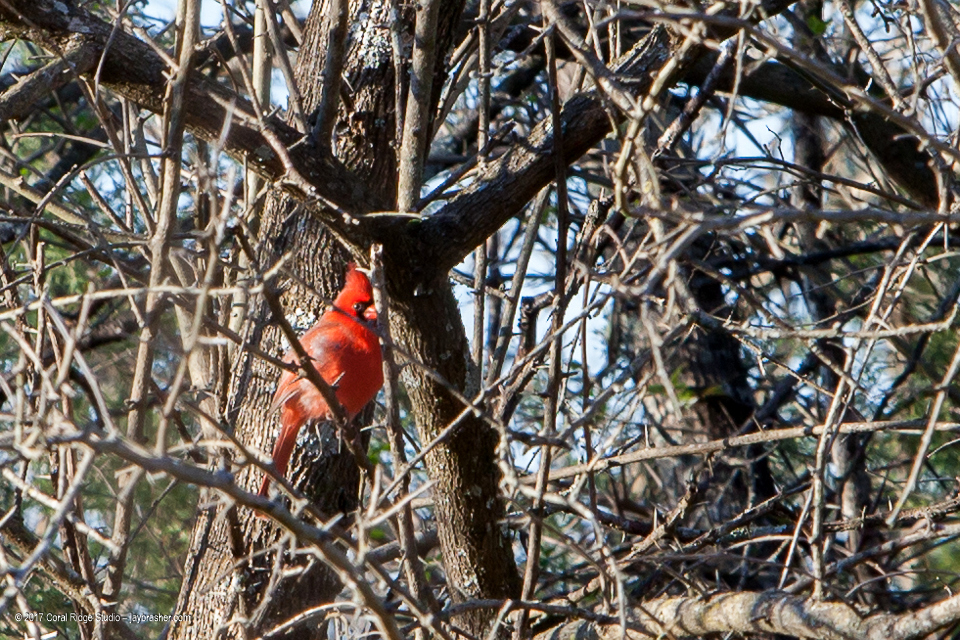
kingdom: Animalia
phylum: Chordata
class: Aves
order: Passeriformes
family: Cardinalidae
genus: Cardinalis
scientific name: Cardinalis cardinalis
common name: Northern cardinal
